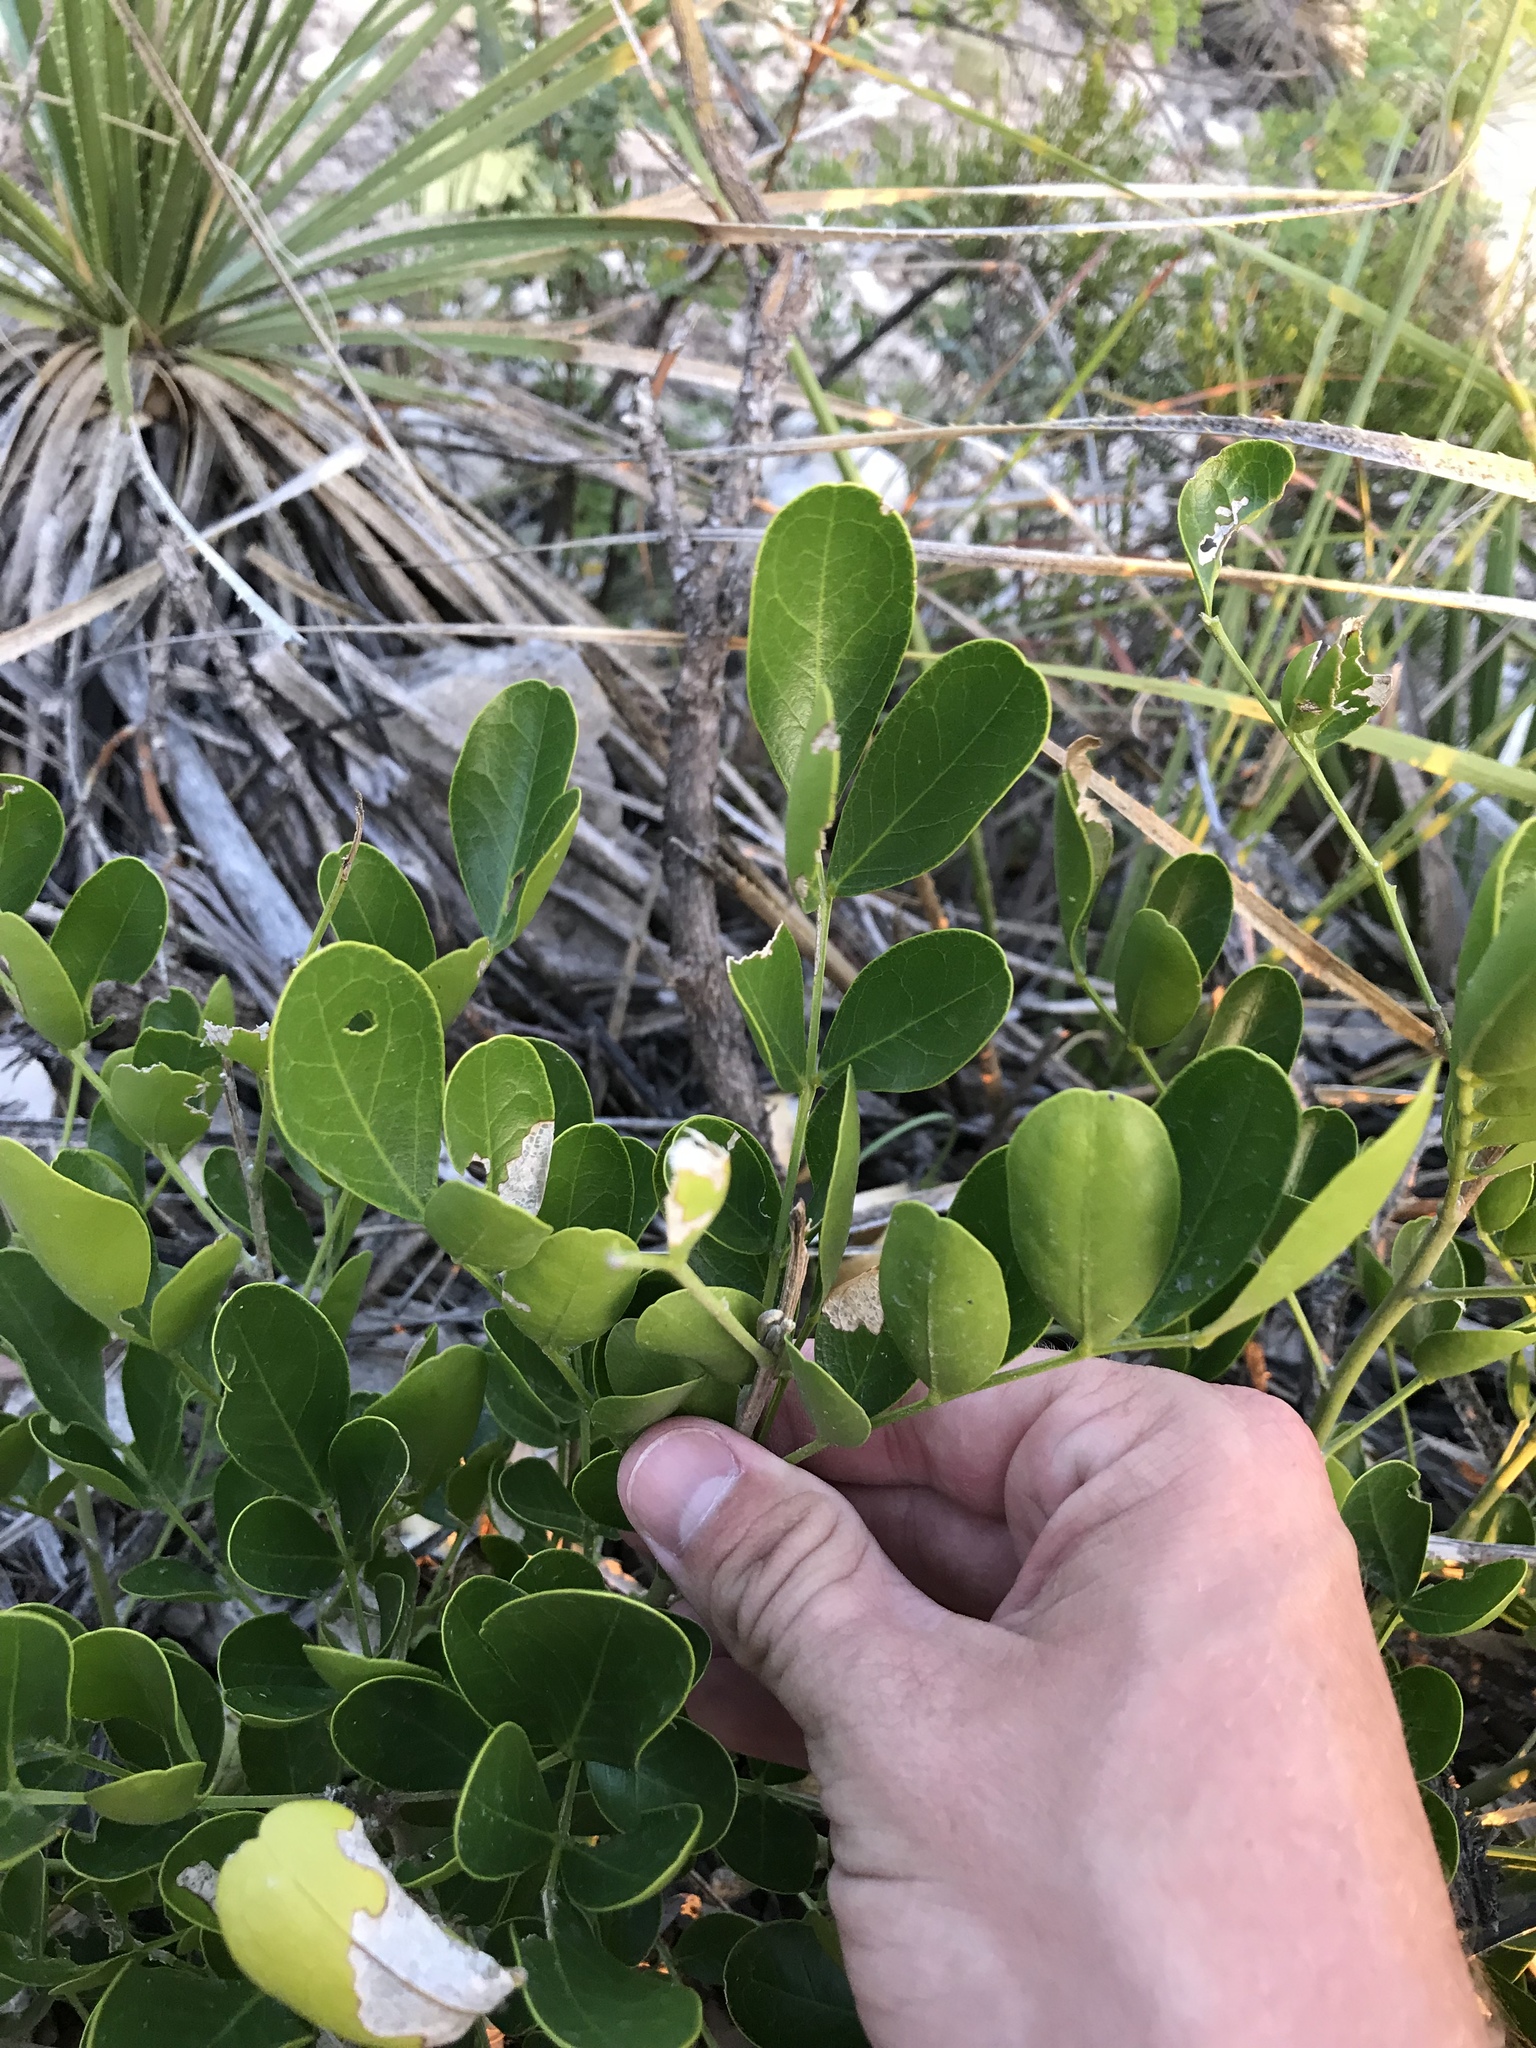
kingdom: Plantae
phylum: Tracheophyta
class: Magnoliopsida
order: Fabales
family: Fabaceae
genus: Dermatophyllum
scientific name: Dermatophyllum secundiflorum
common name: Texas-mountain-laurel
